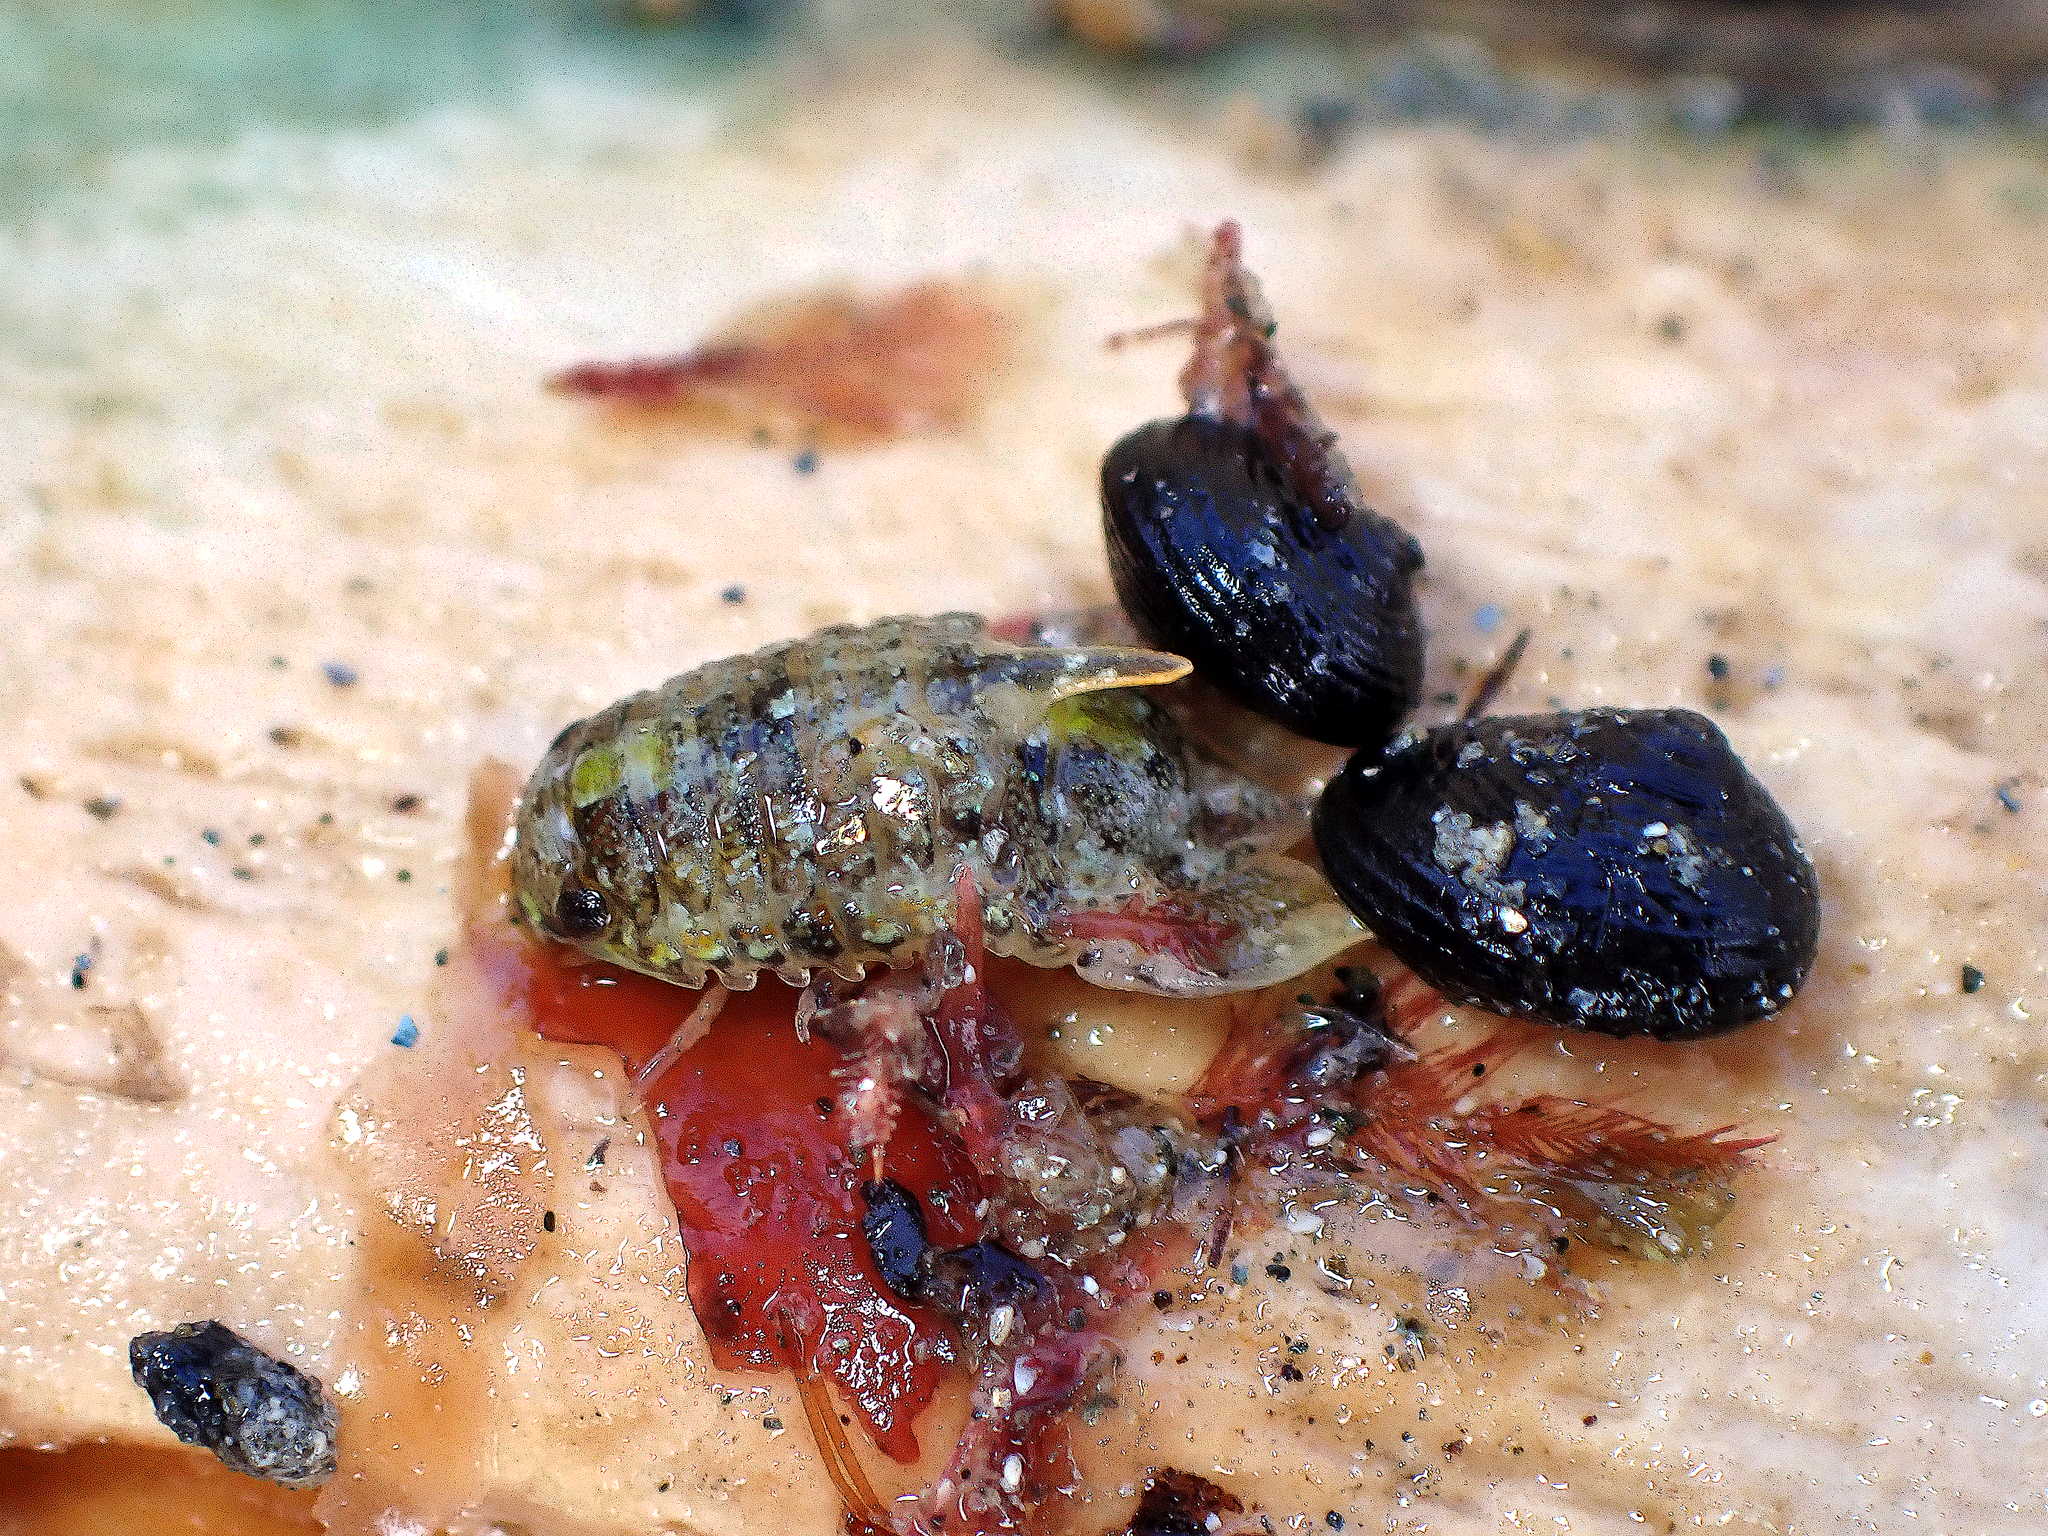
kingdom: Animalia
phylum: Arthropoda
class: Malacostraca
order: Isopoda
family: Sphaeromatidae
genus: Isocladus
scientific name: Isocladus armatus
